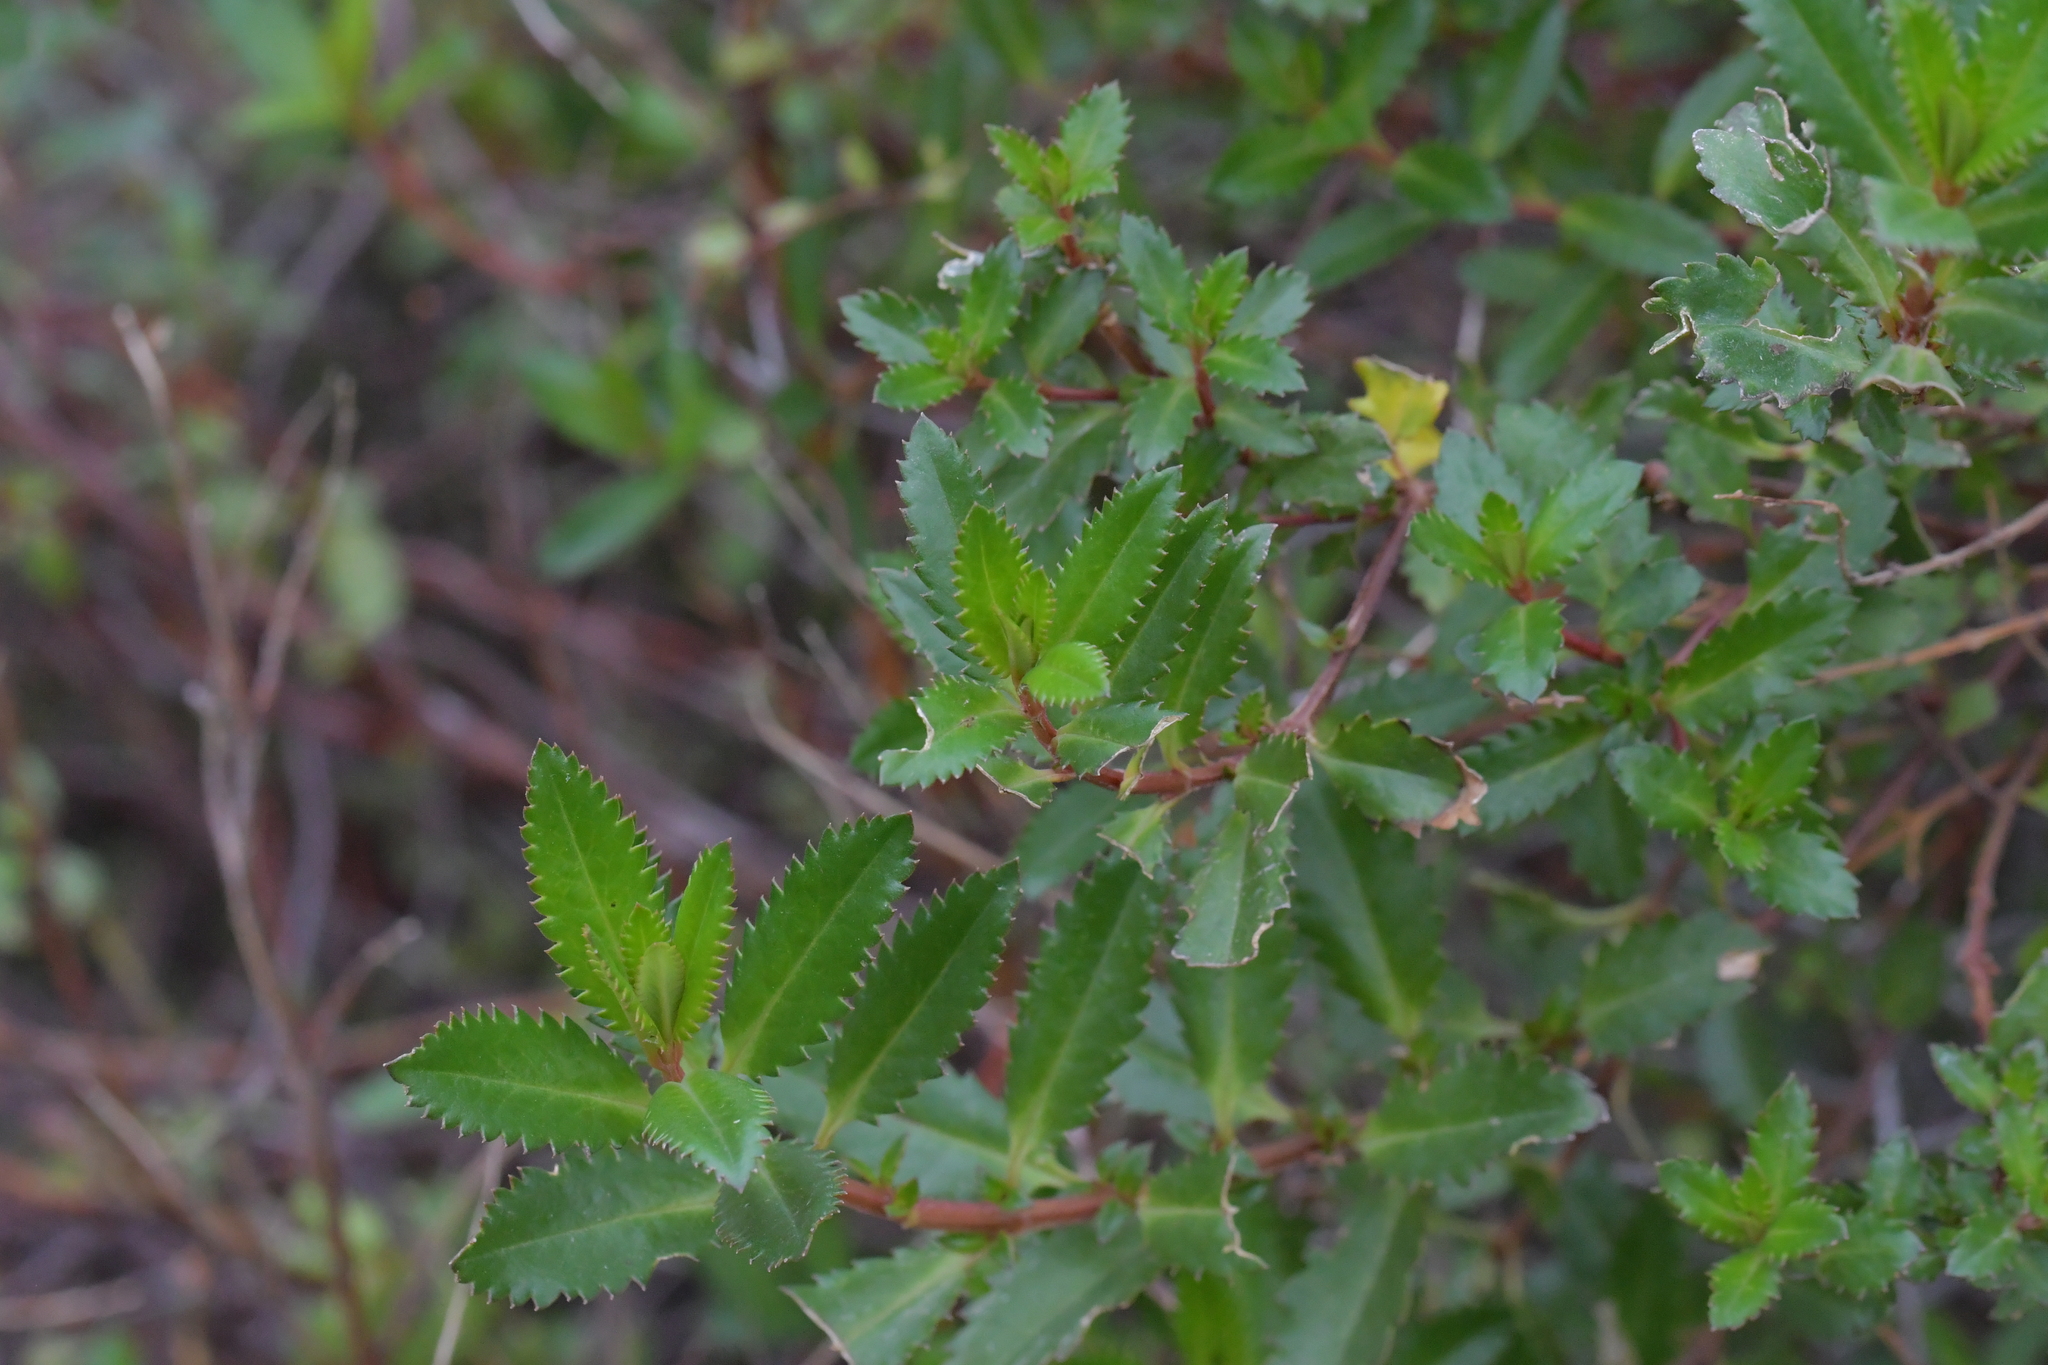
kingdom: Plantae
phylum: Tracheophyta
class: Magnoliopsida
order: Saxifragales
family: Haloragaceae
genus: Haloragis
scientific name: Haloragis erecta
